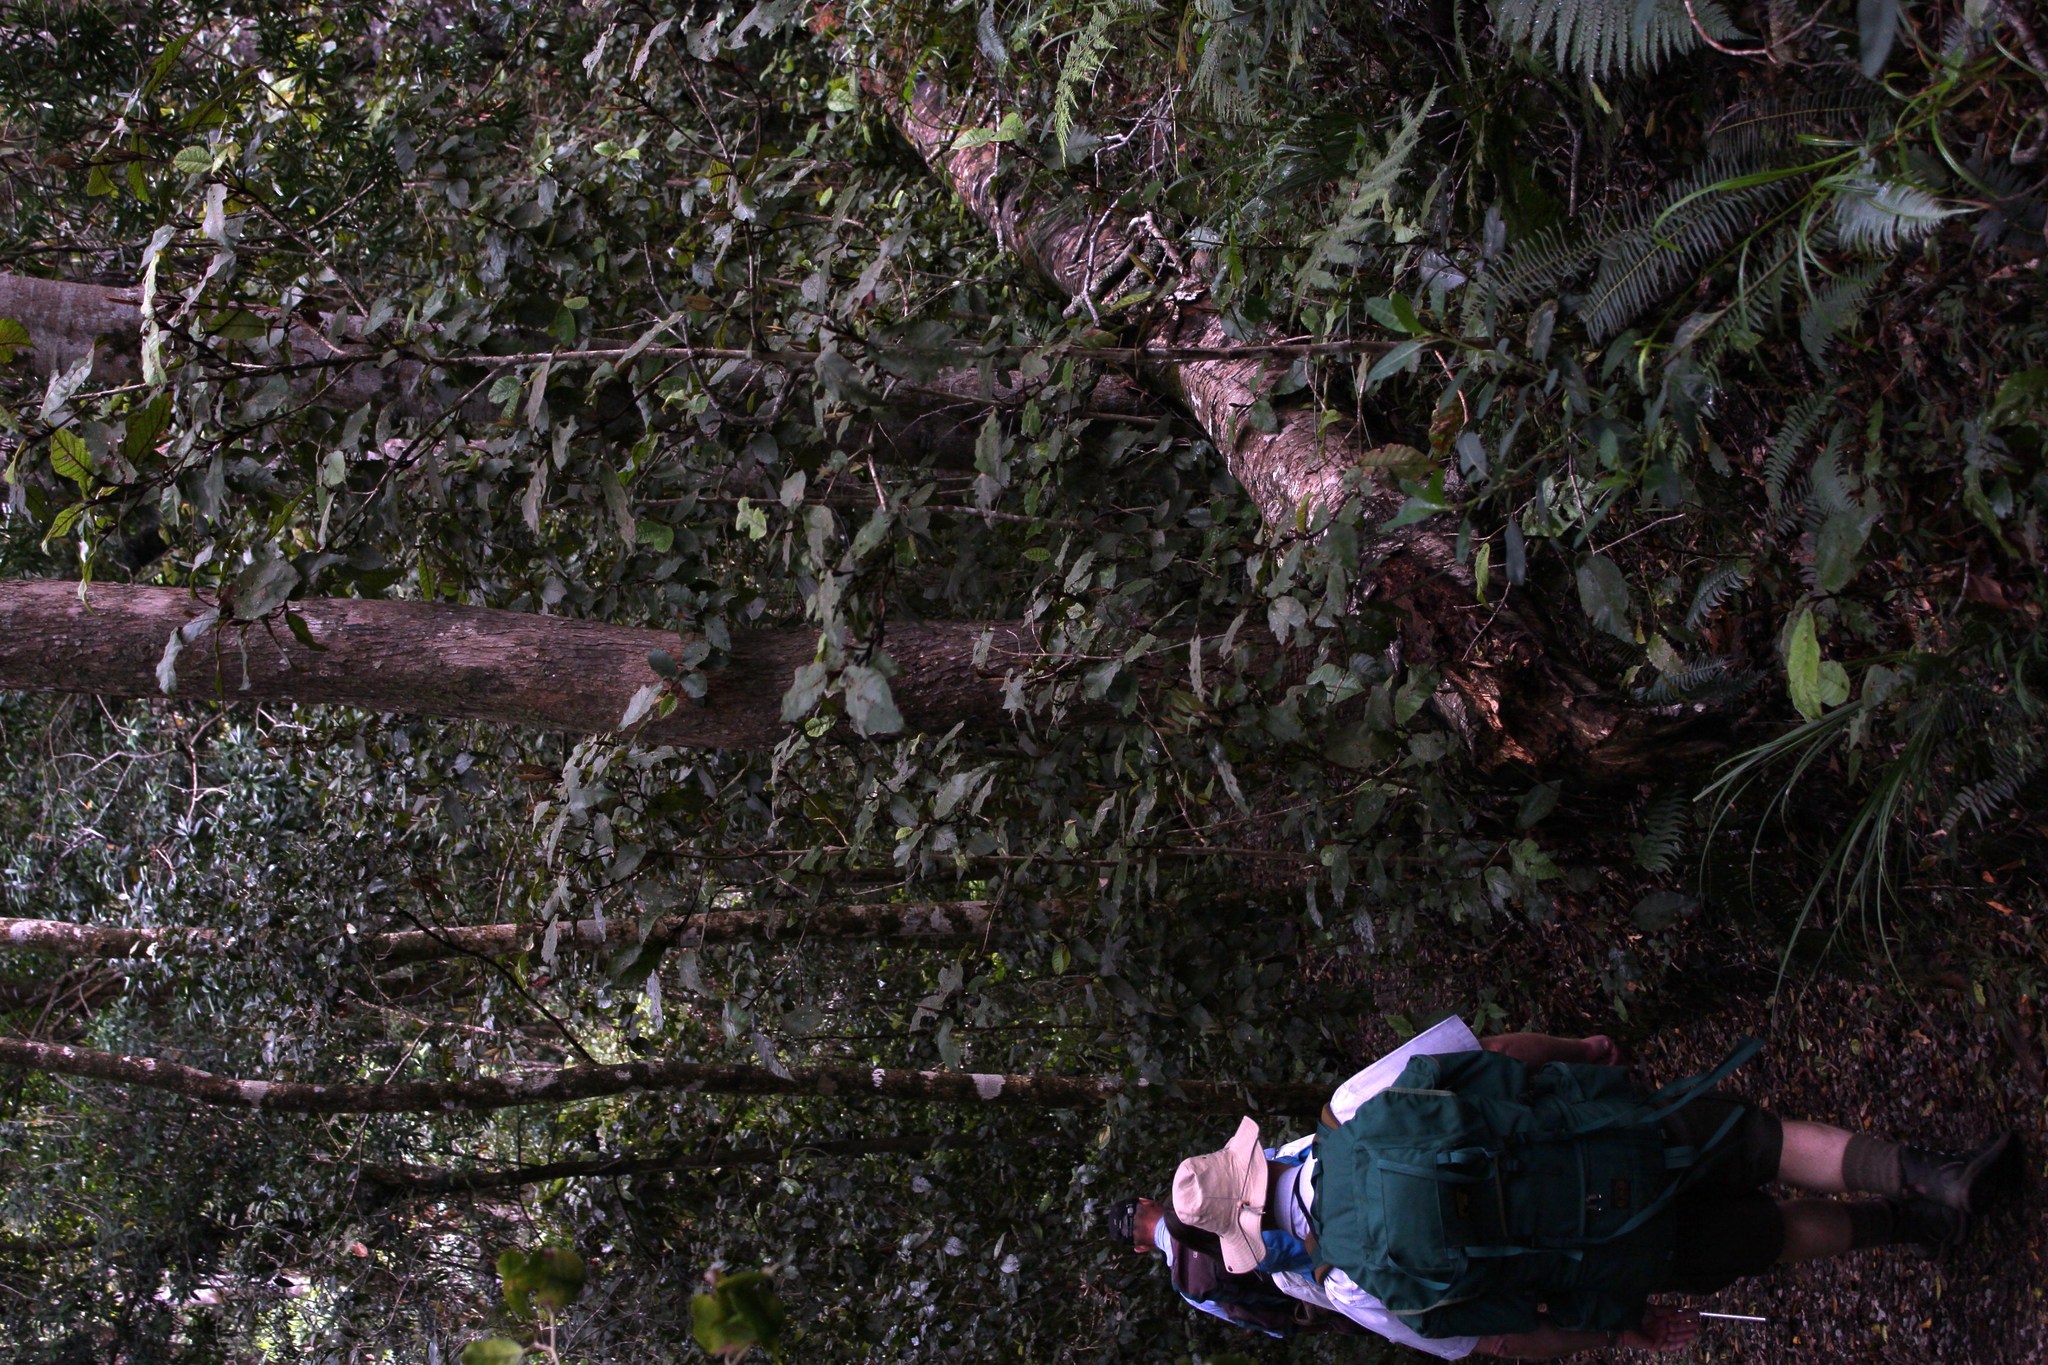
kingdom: Plantae
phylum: Tracheophyta
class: Magnoliopsida
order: Saxifragales
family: Hamamelidaceae
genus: Trichocladus
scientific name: Trichocladus crinitus
